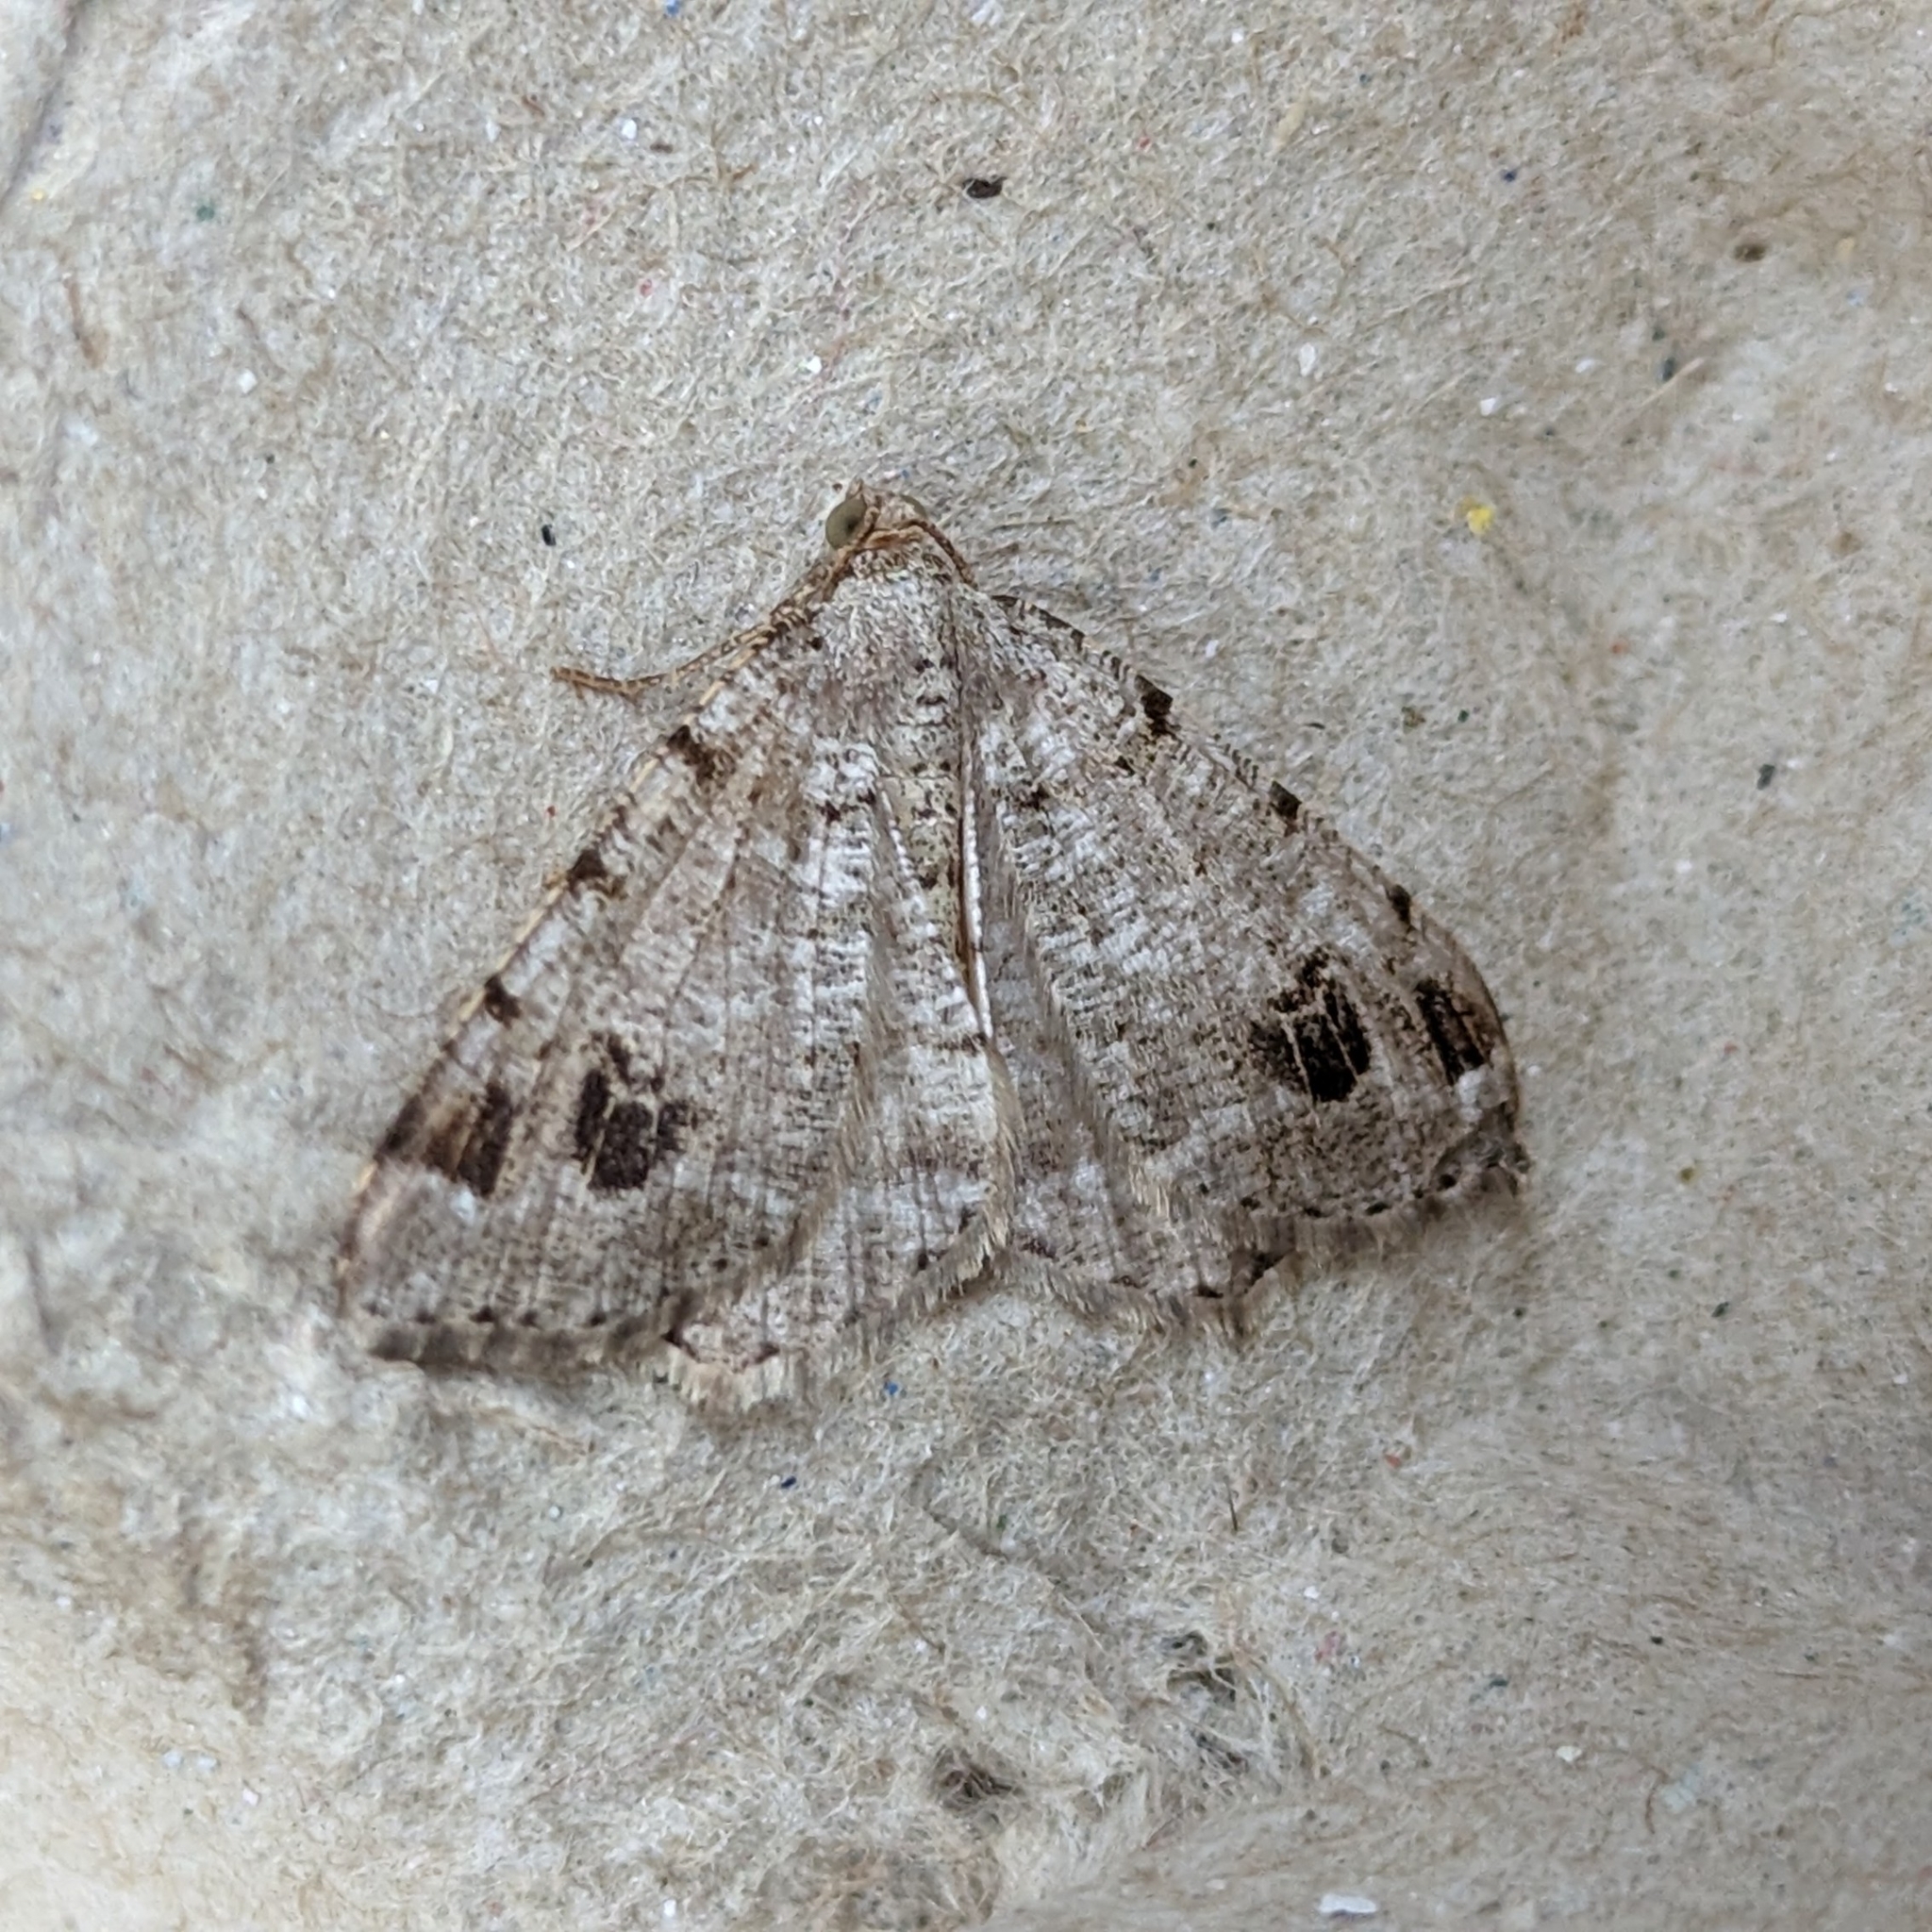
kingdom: Animalia
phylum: Arthropoda
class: Insecta
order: Lepidoptera
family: Geometridae
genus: Macaria
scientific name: Macaria signaria
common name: Dusky peacock
